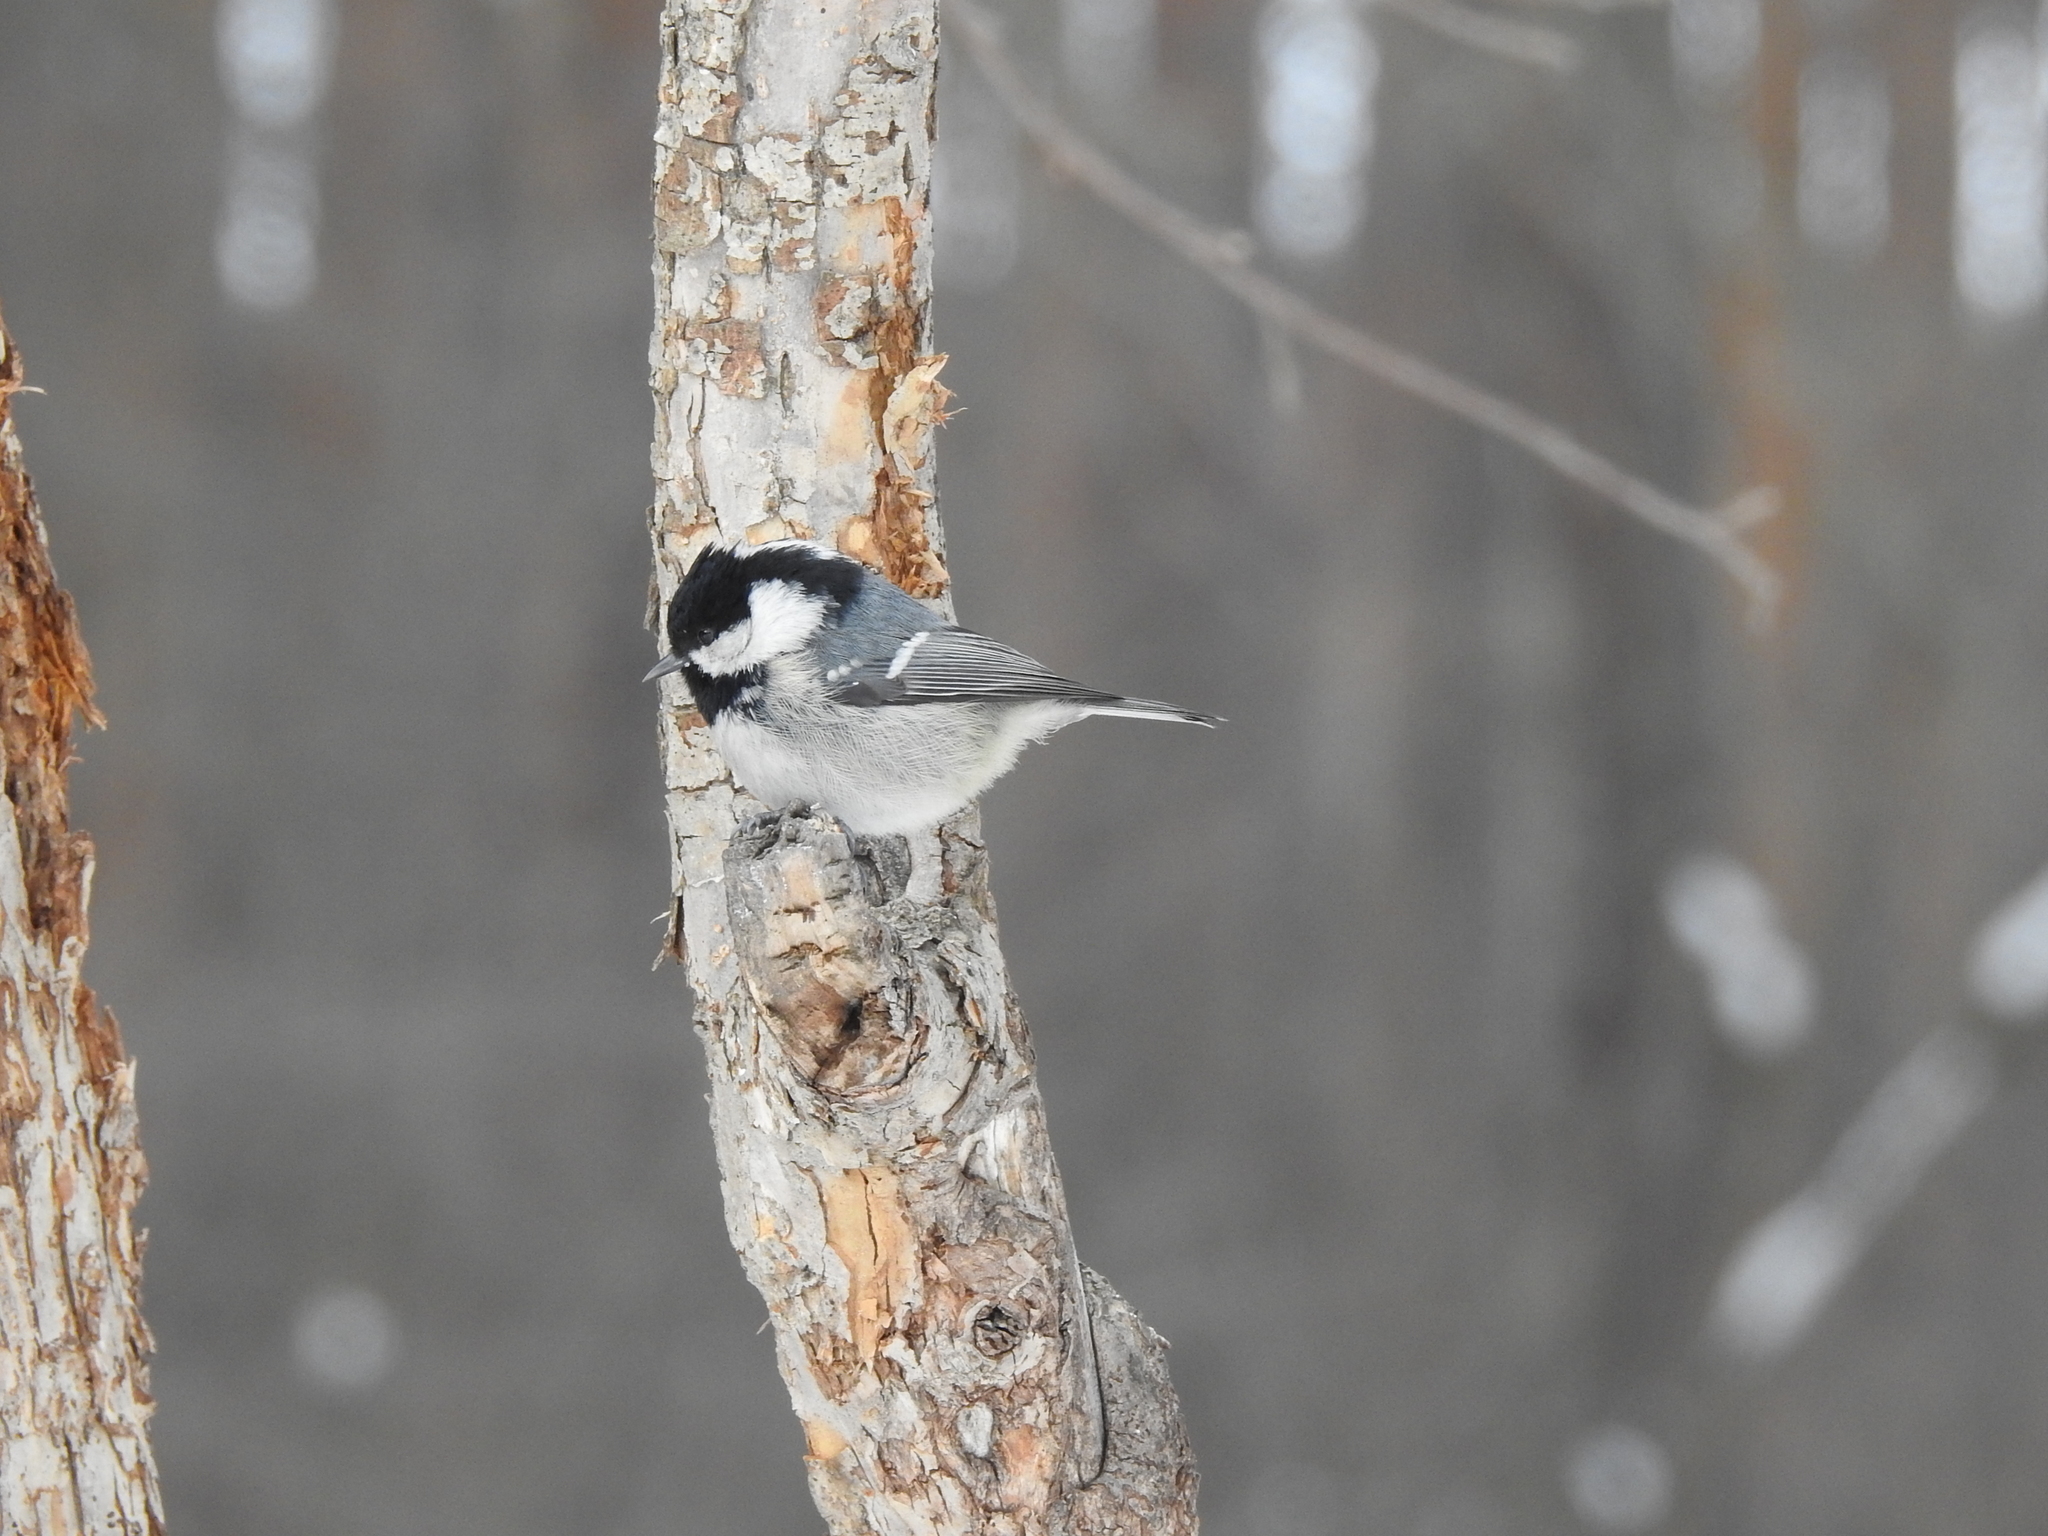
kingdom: Animalia
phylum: Chordata
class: Aves
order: Passeriformes
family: Paridae
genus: Periparus
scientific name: Periparus ater
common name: Coal tit
